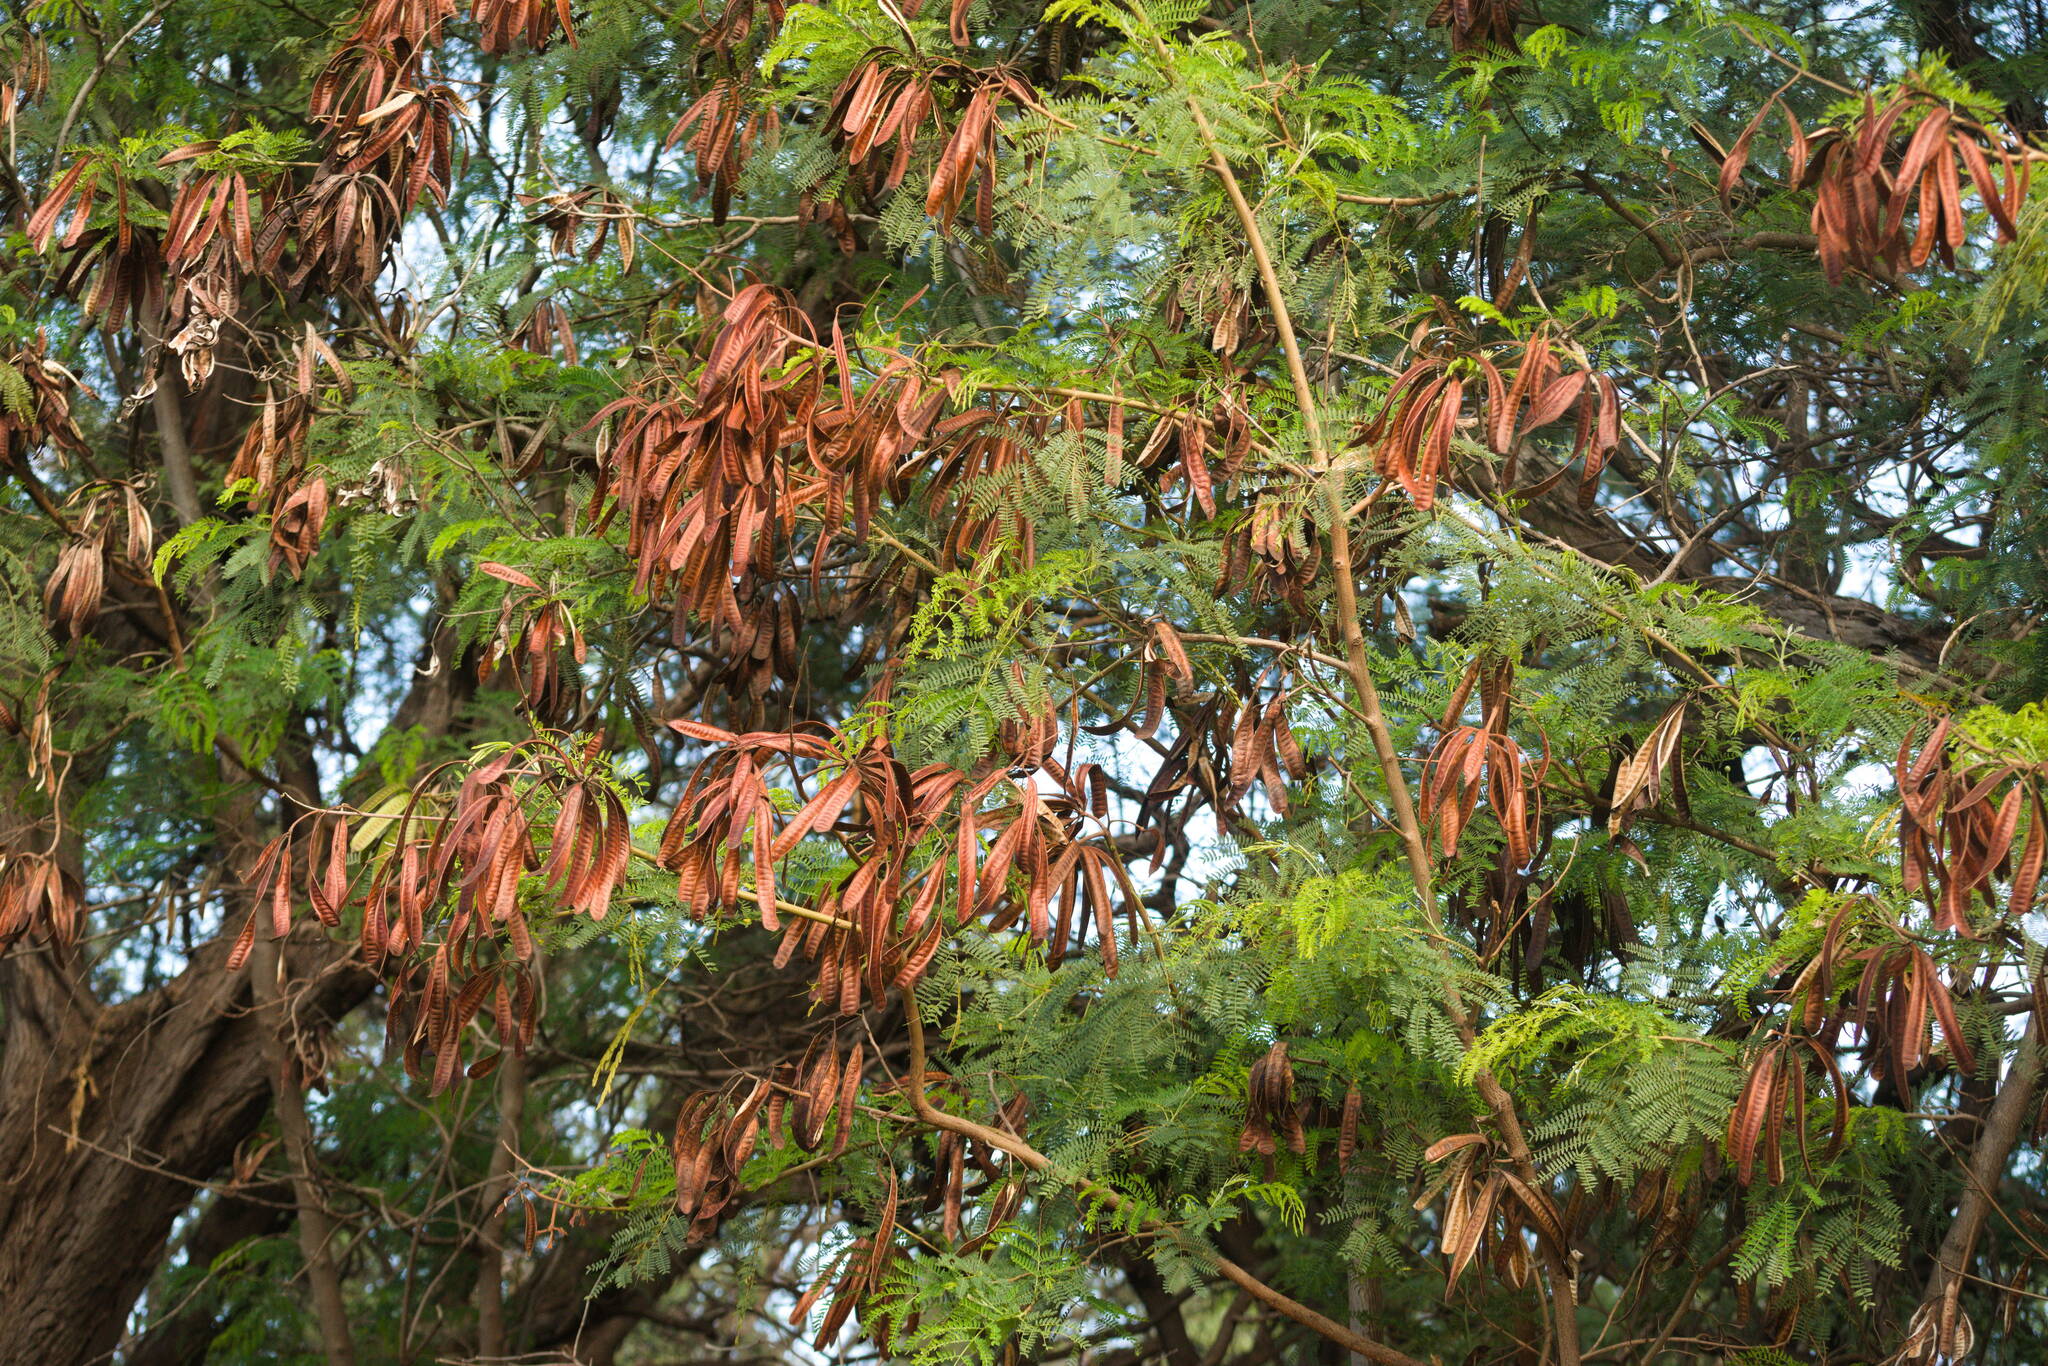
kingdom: Plantae
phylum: Tracheophyta
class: Magnoliopsida
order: Fabales
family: Fabaceae
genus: Leucaena
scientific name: Leucaena leucocephala
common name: White leadtree
